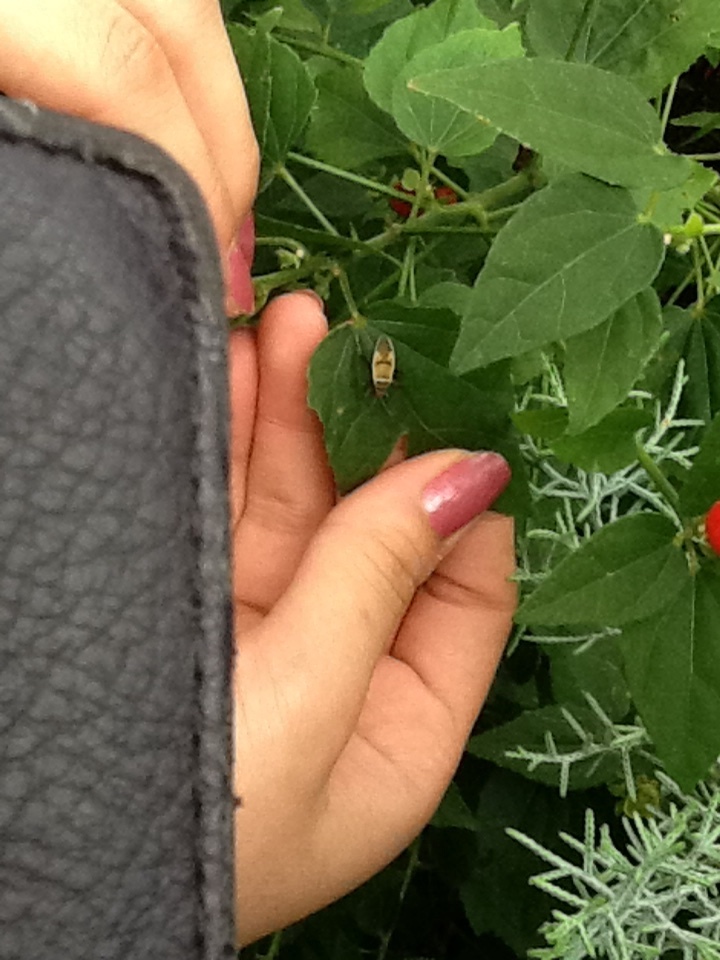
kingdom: Animalia
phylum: Arthropoda
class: Insecta
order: Hemiptera
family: Largidae
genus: Largus
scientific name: Largus maculatus
